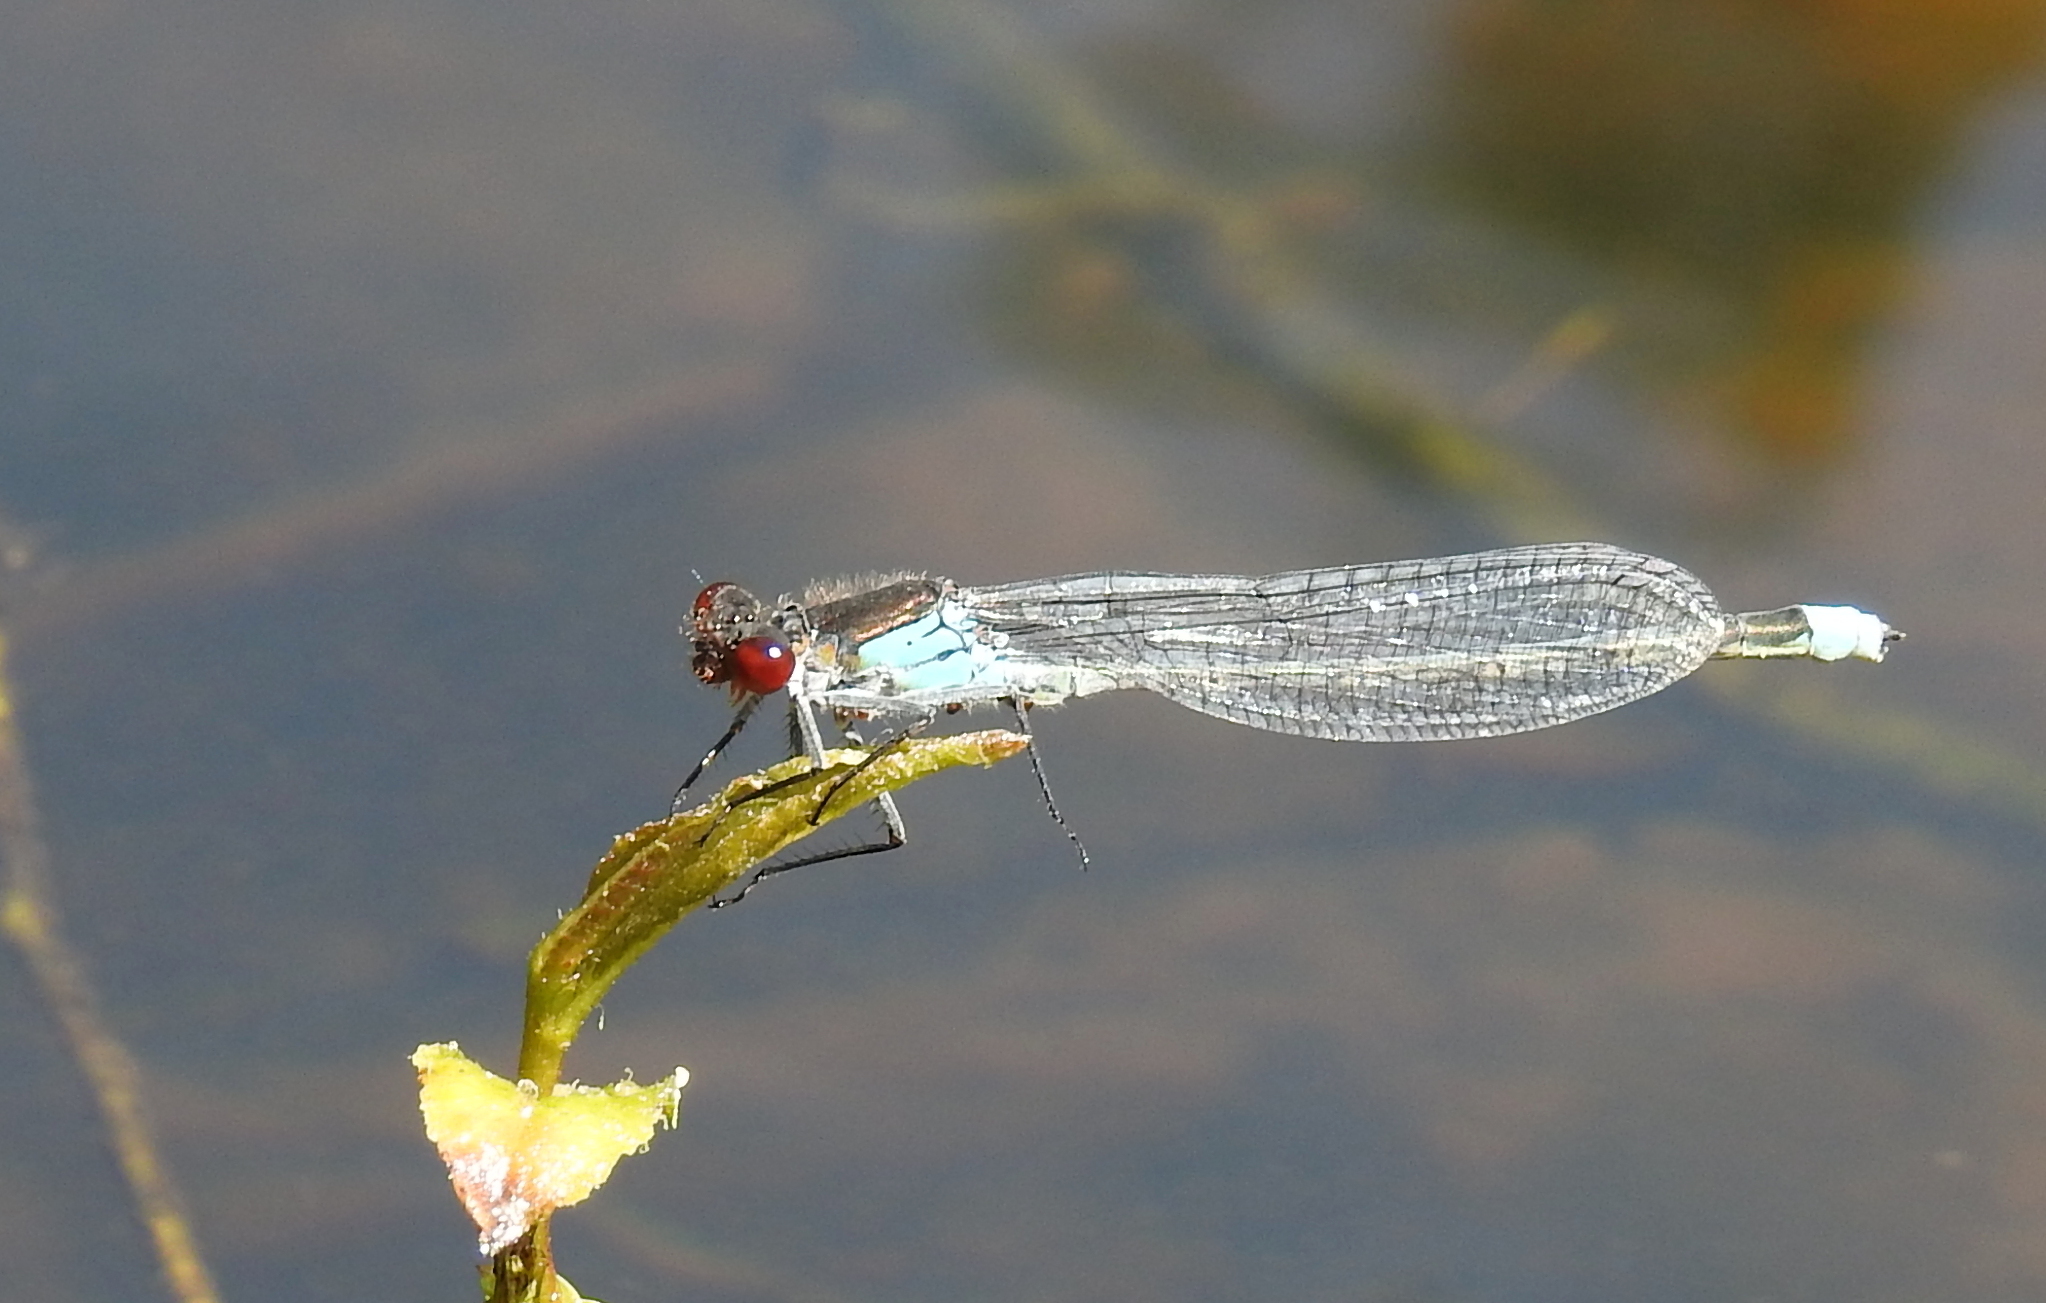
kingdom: Animalia
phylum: Arthropoda
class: Insecta
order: Odonata
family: Coenagrionidae
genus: Erythromma
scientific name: Erythromma najas
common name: Red-eyed damselfly
